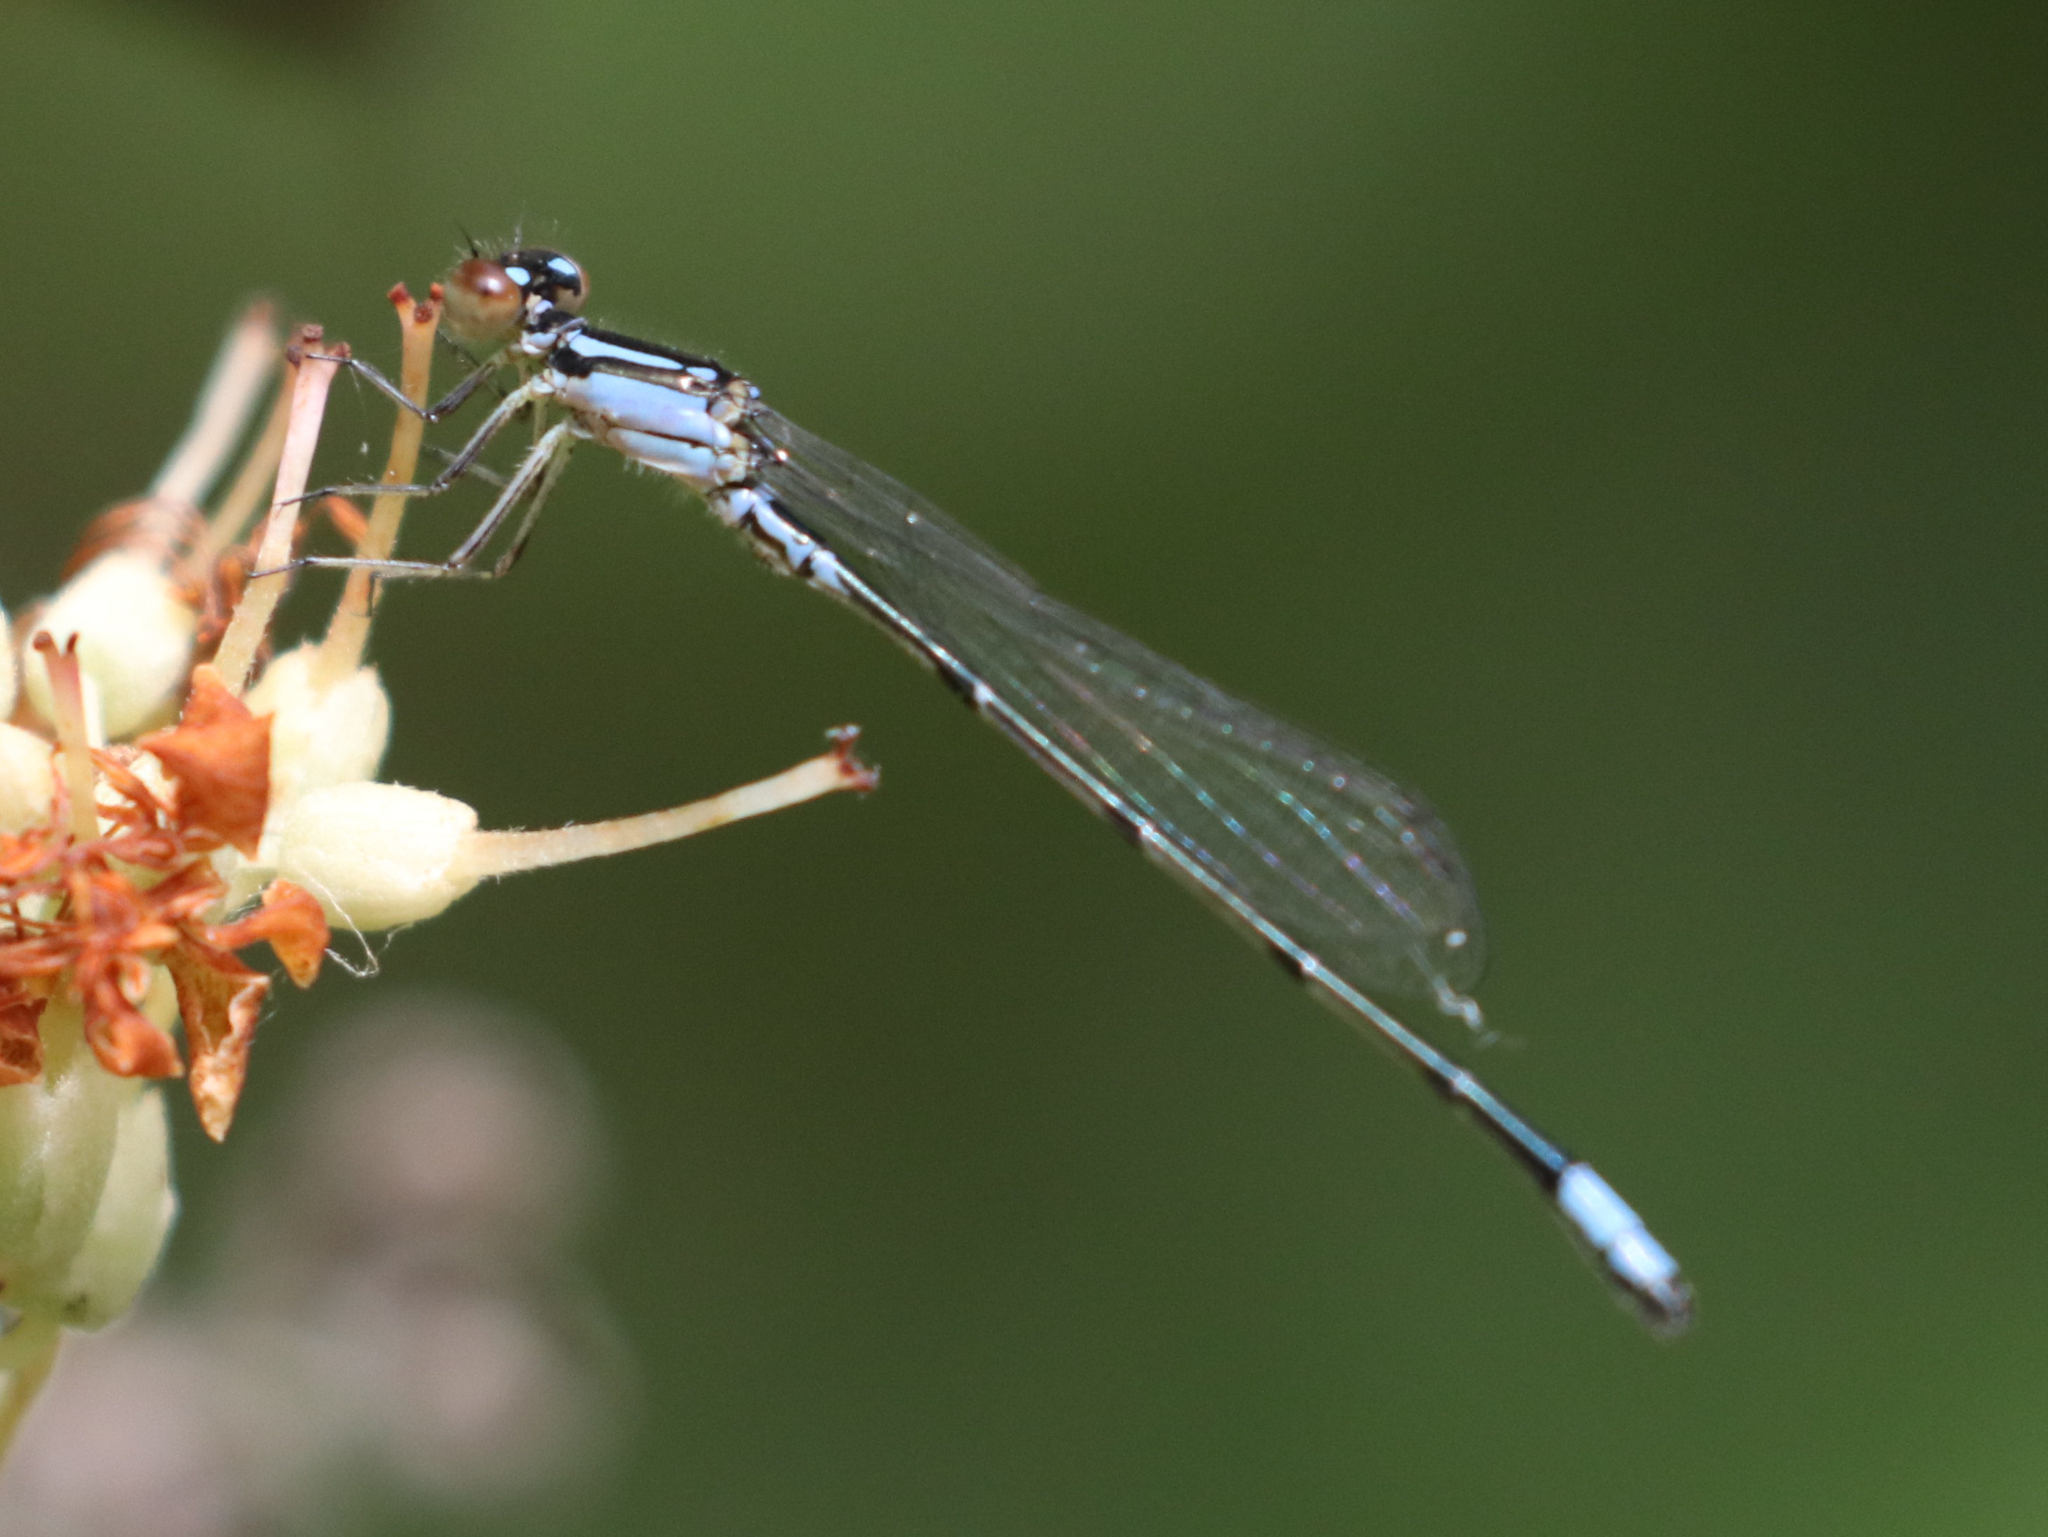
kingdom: Animalia
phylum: Arthropoda
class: Insecta
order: Odonata
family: Coenagrionidae
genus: Enallagma
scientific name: Enallagma geminatum
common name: Skimming bluet
